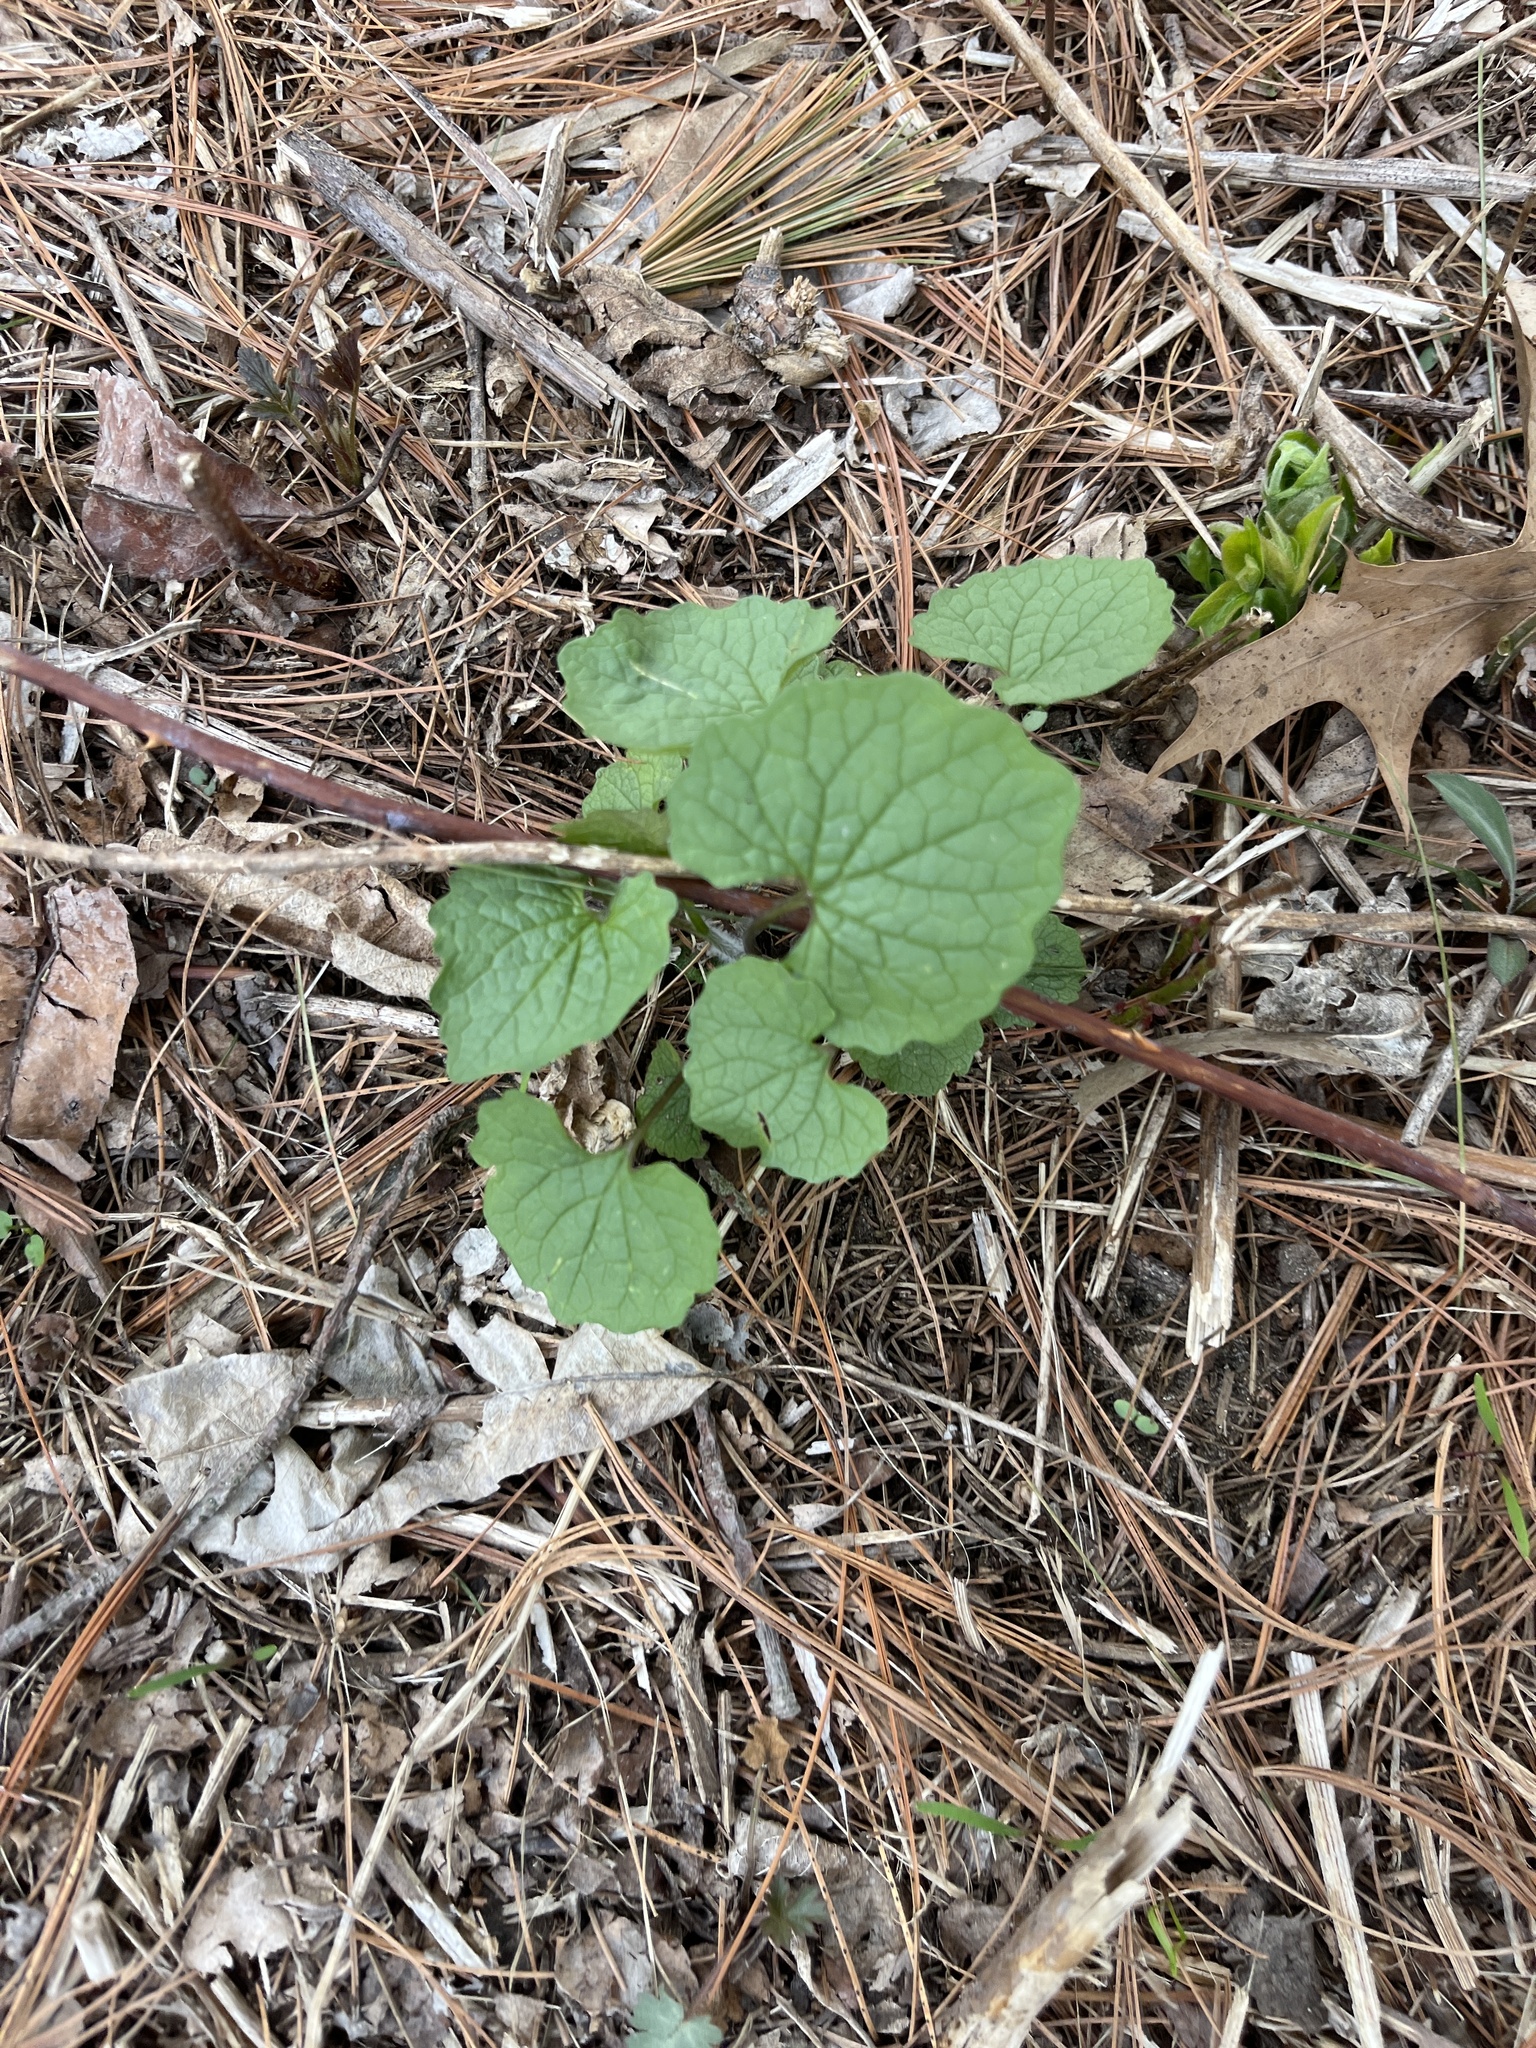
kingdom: Plantae
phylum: Tracheophyta
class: Magnoliopsida
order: Brassicales
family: Brassicaceae
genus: Alliaria
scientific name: Alliaria petiolata
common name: Garlic mustard
